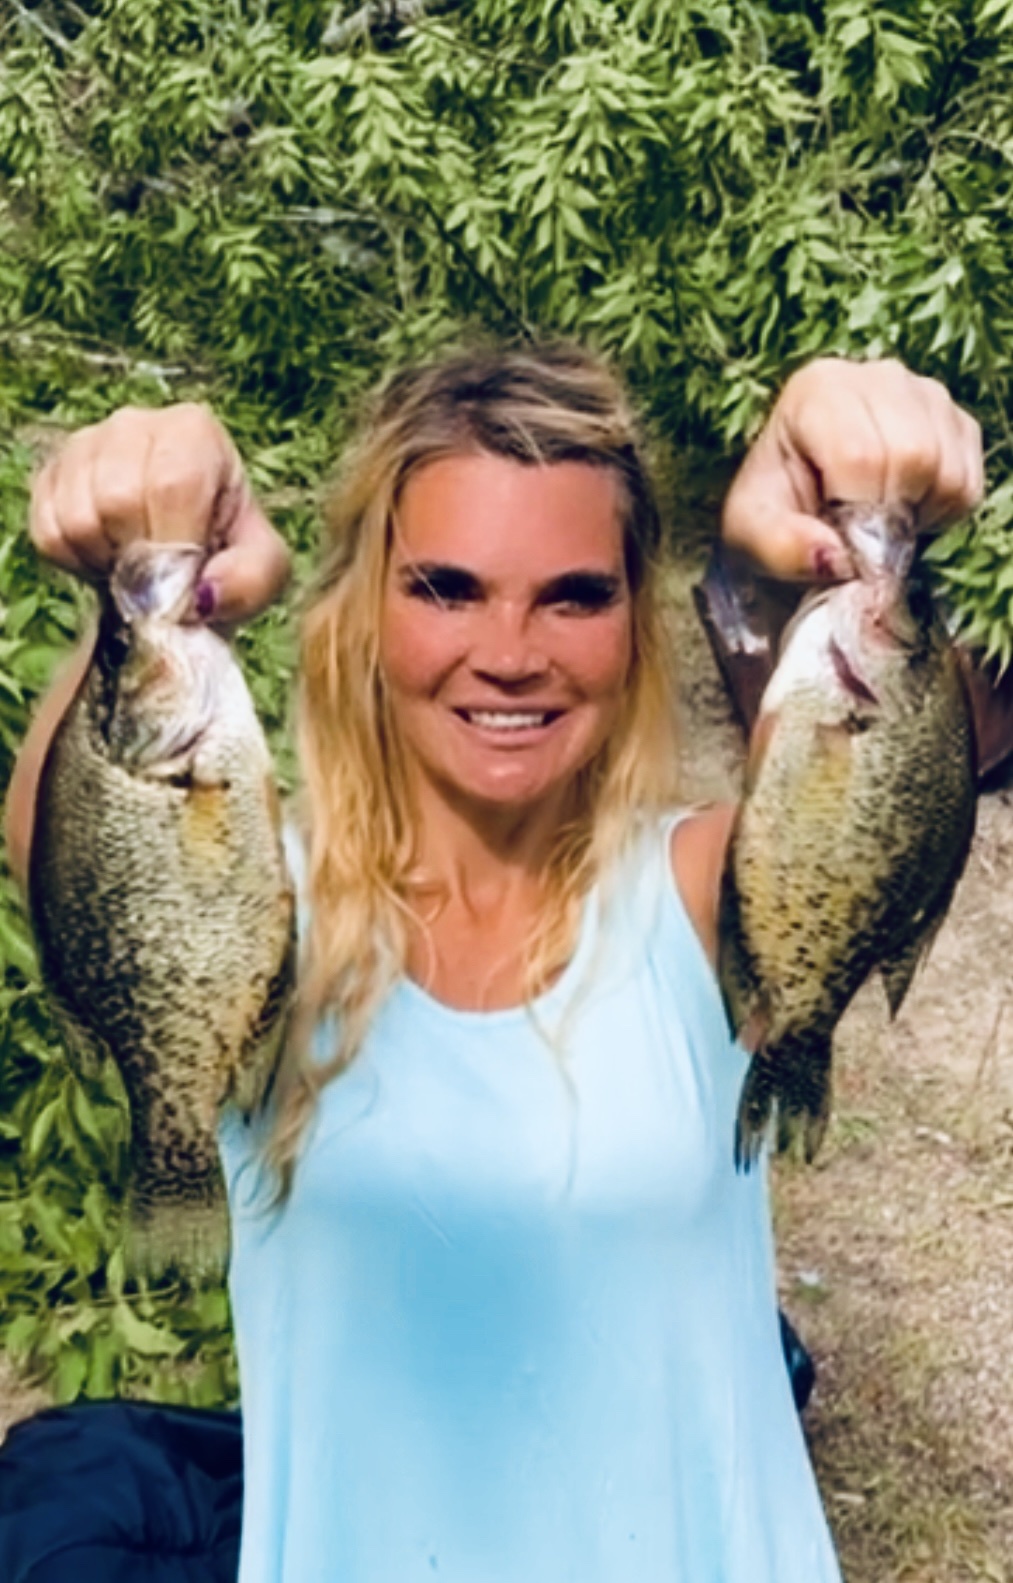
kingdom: Animalia
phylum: Chordata
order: Perciformes
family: Centrarchidae
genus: Pomoxis
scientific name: Pomoxis nigromaculatus
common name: Black crappie
